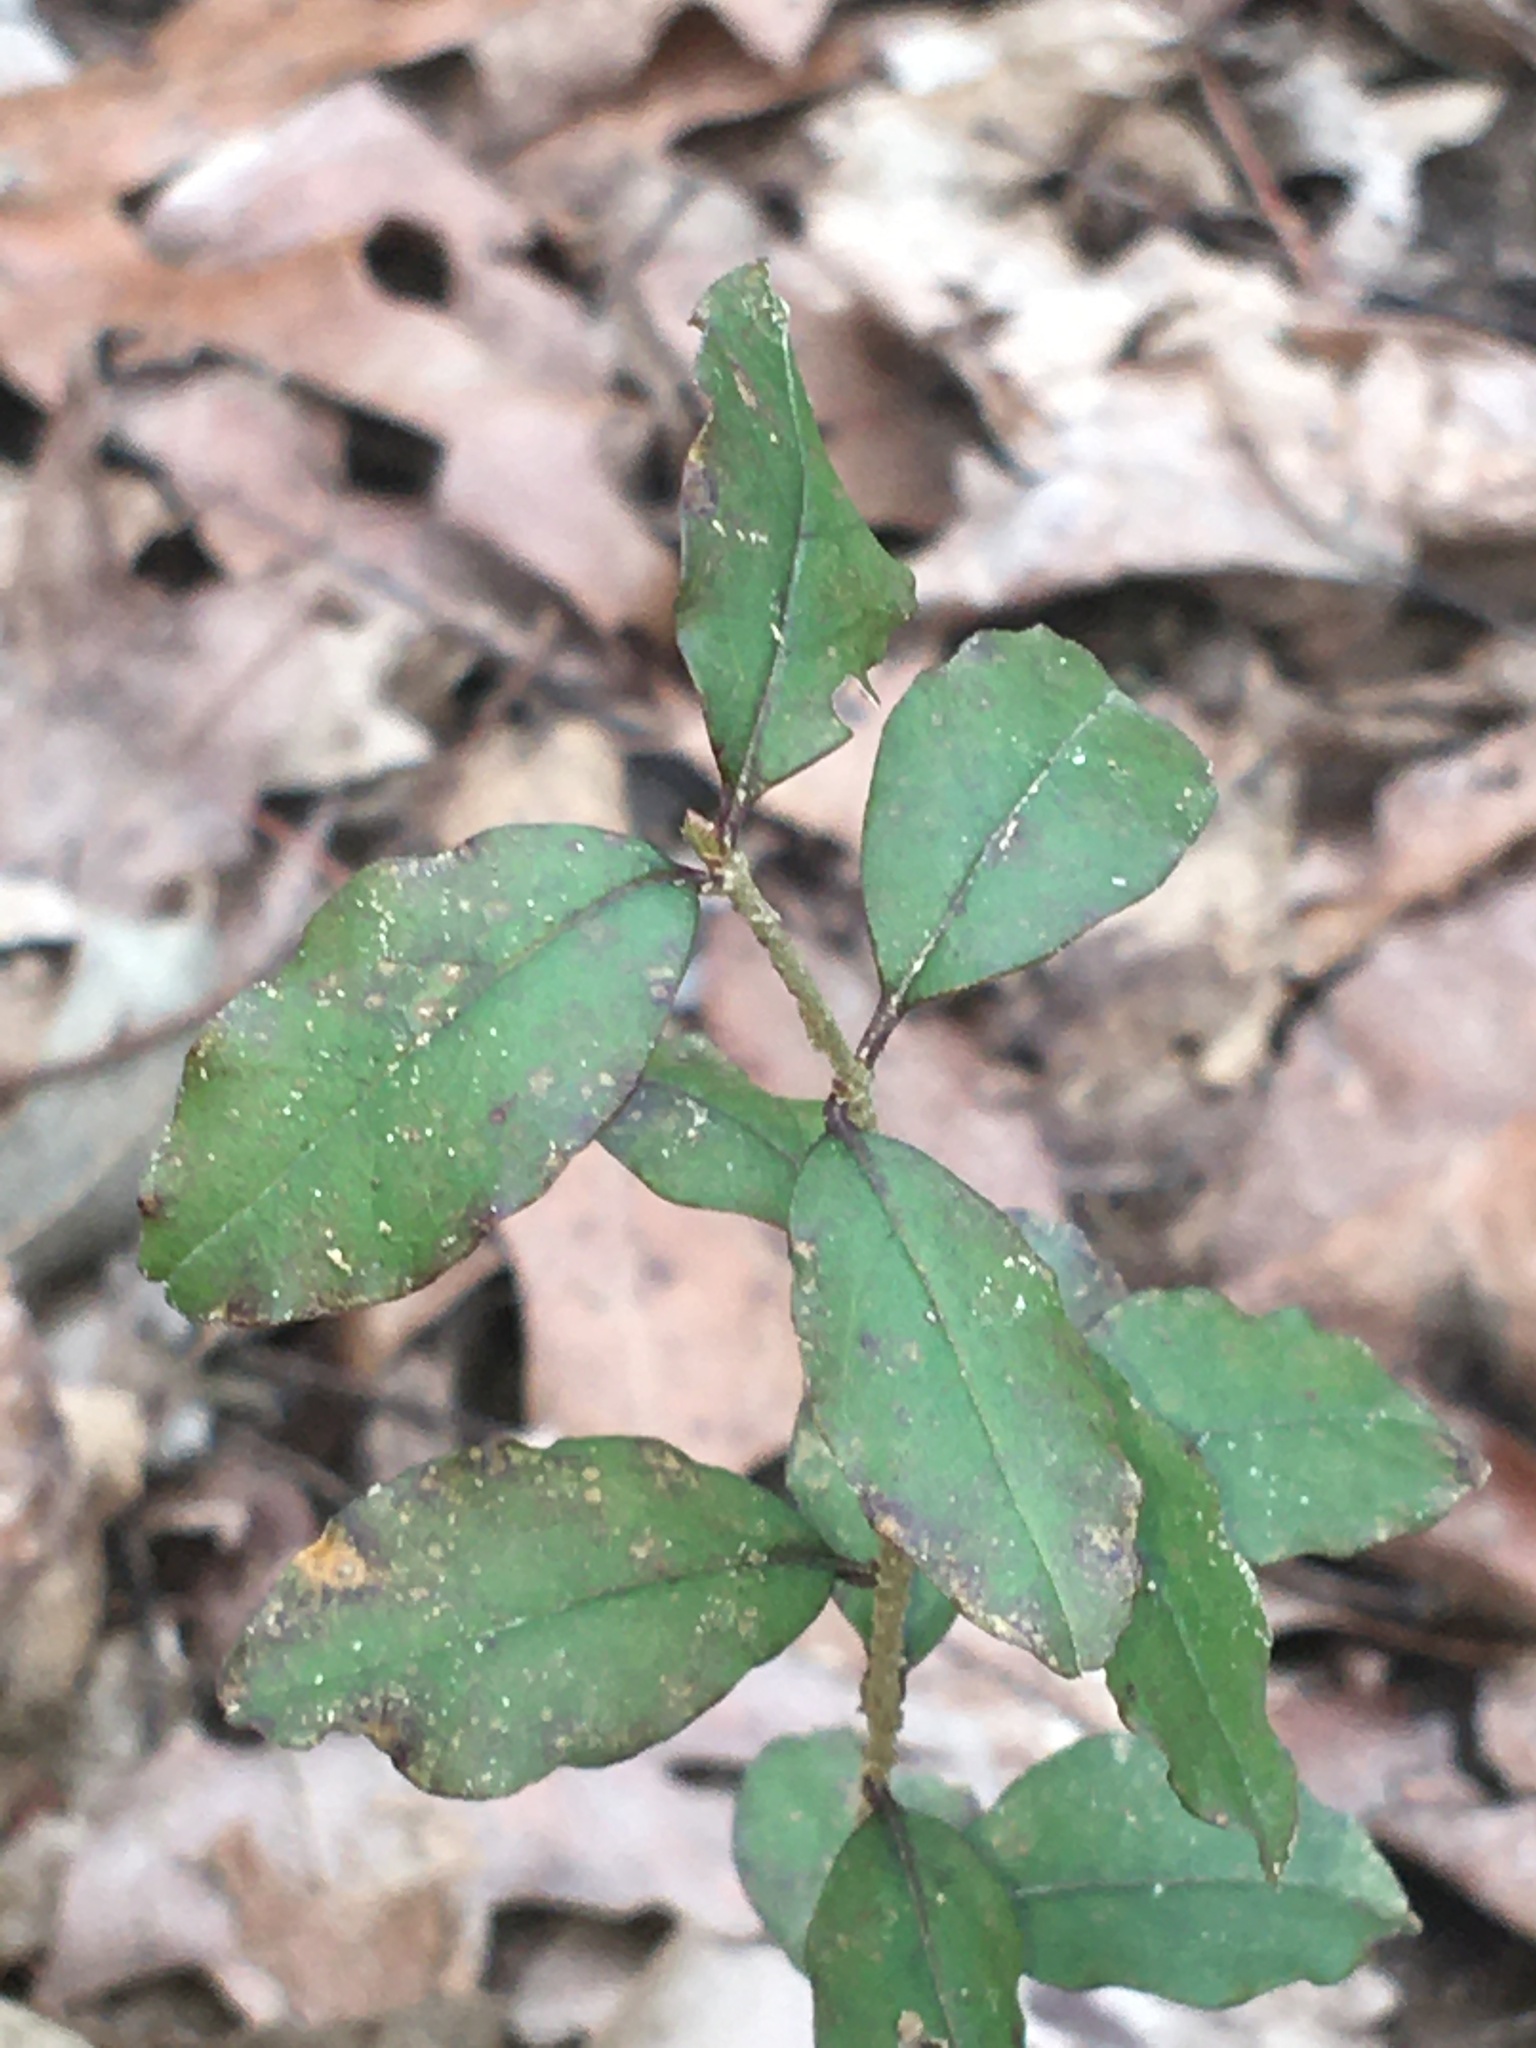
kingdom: Plantae
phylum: Tracheophyta
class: Magnoliopsida
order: Lamiales
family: Oleaceae
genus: Ligustrum
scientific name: Ligustrum sinense
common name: Chinese privet
